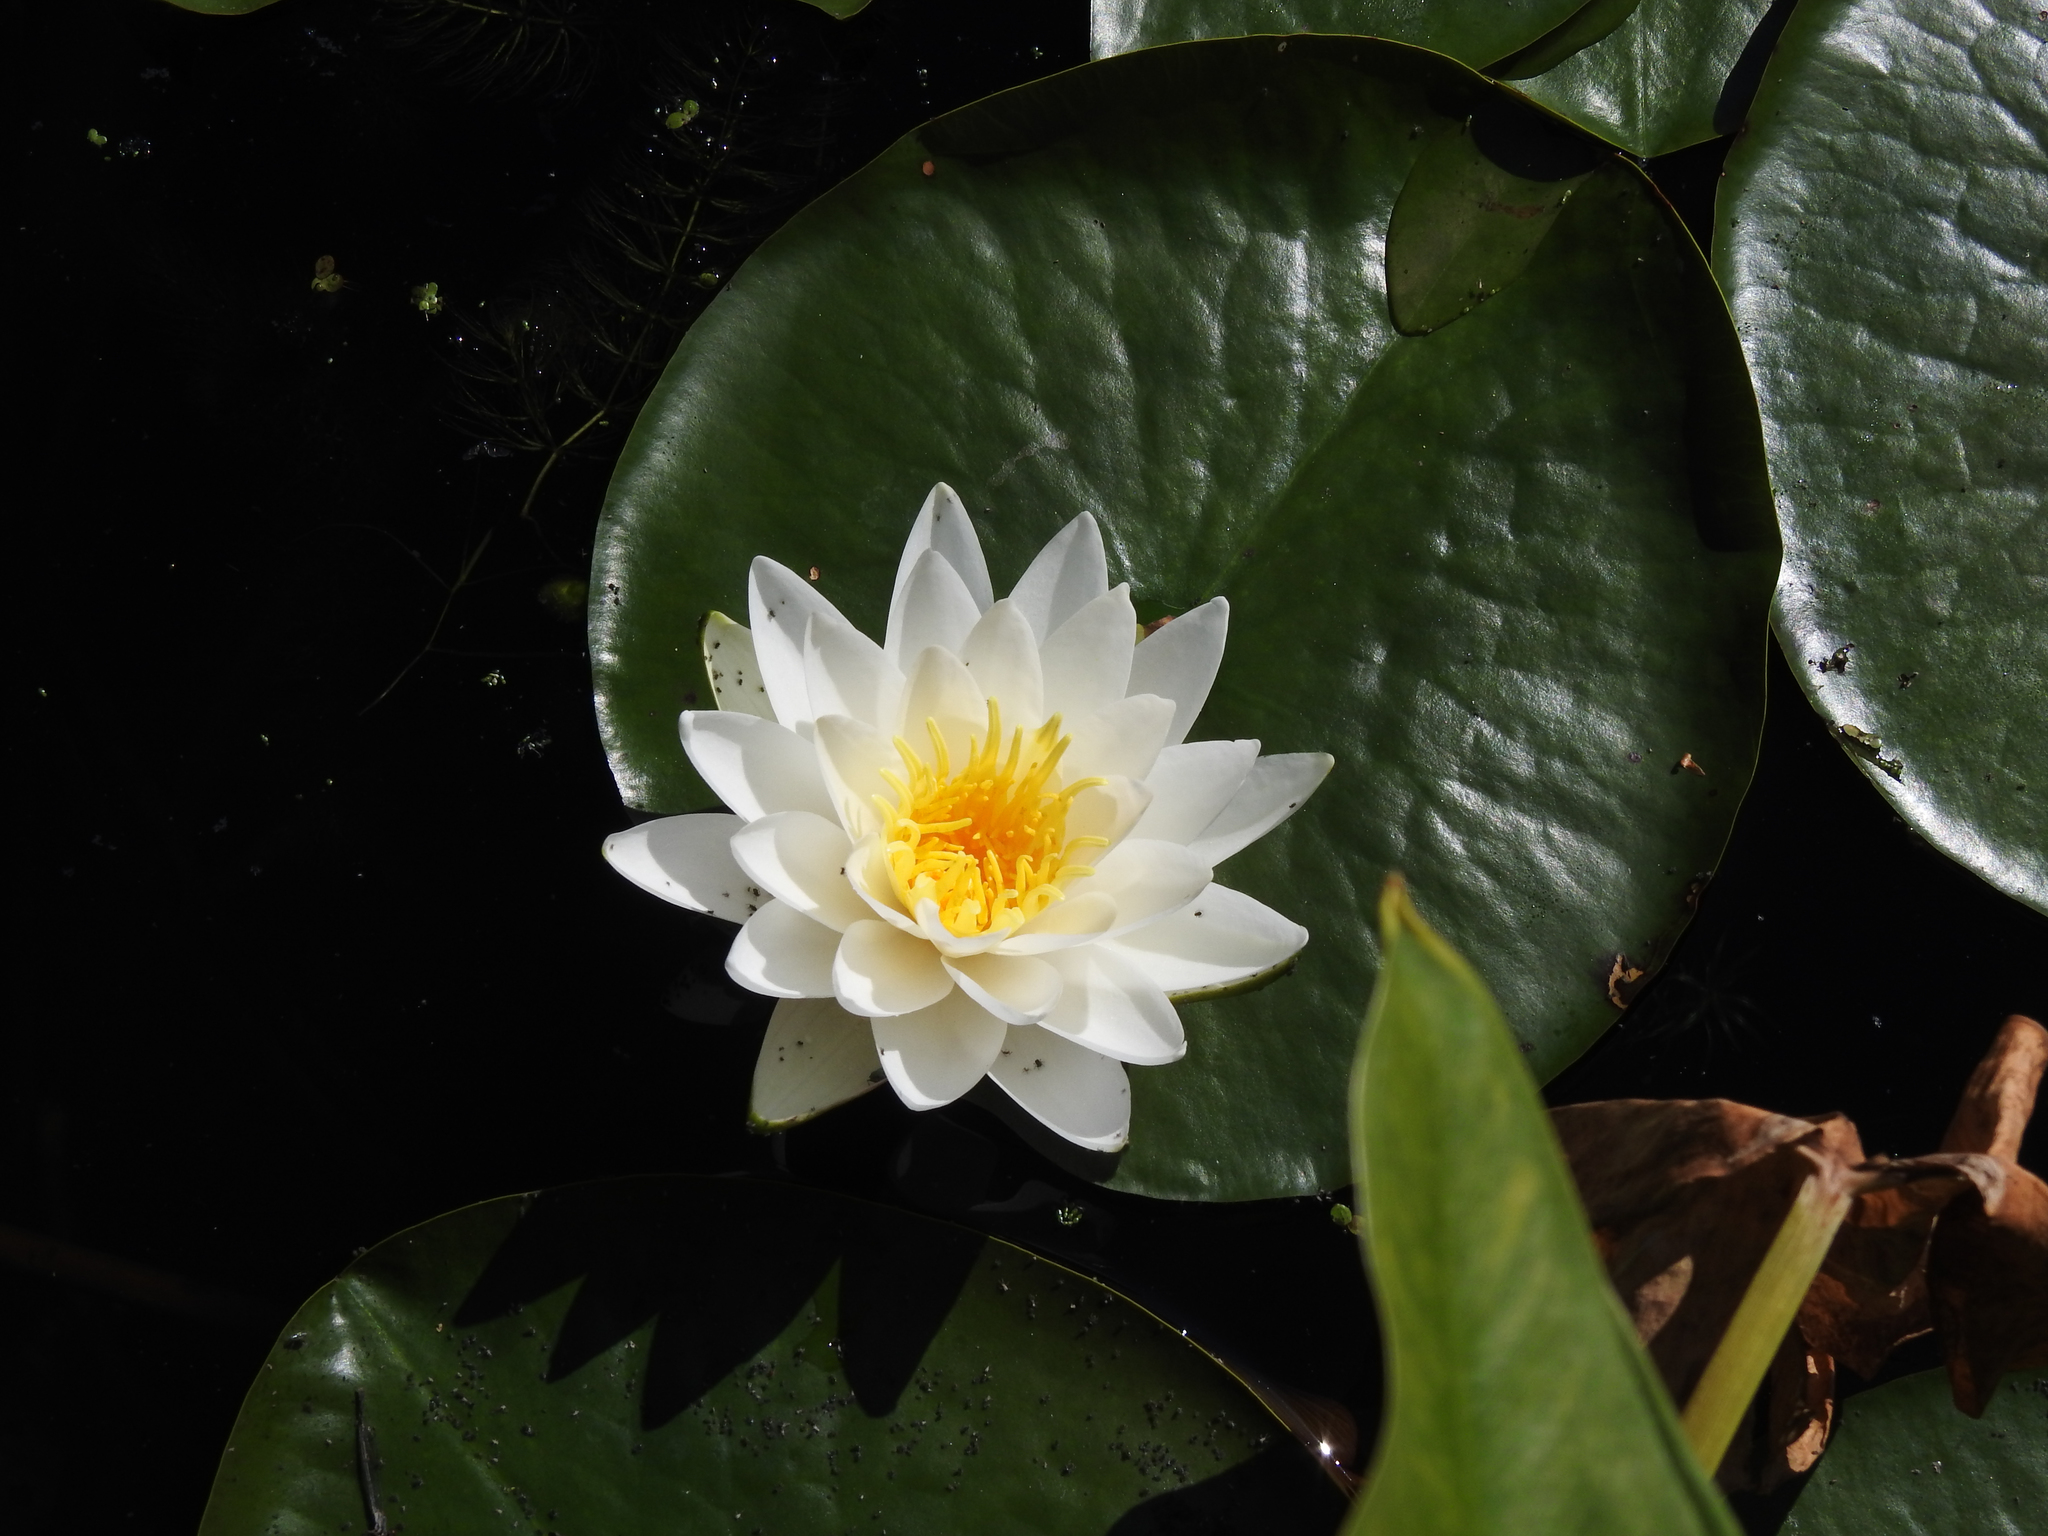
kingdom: Plantae
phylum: Tracheophyta
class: Magnoliopsida
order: Nymphaeales
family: Nymphaeaceae
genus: Nymphaea
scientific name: Nymphaea odorata
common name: Fragrant water-lily
